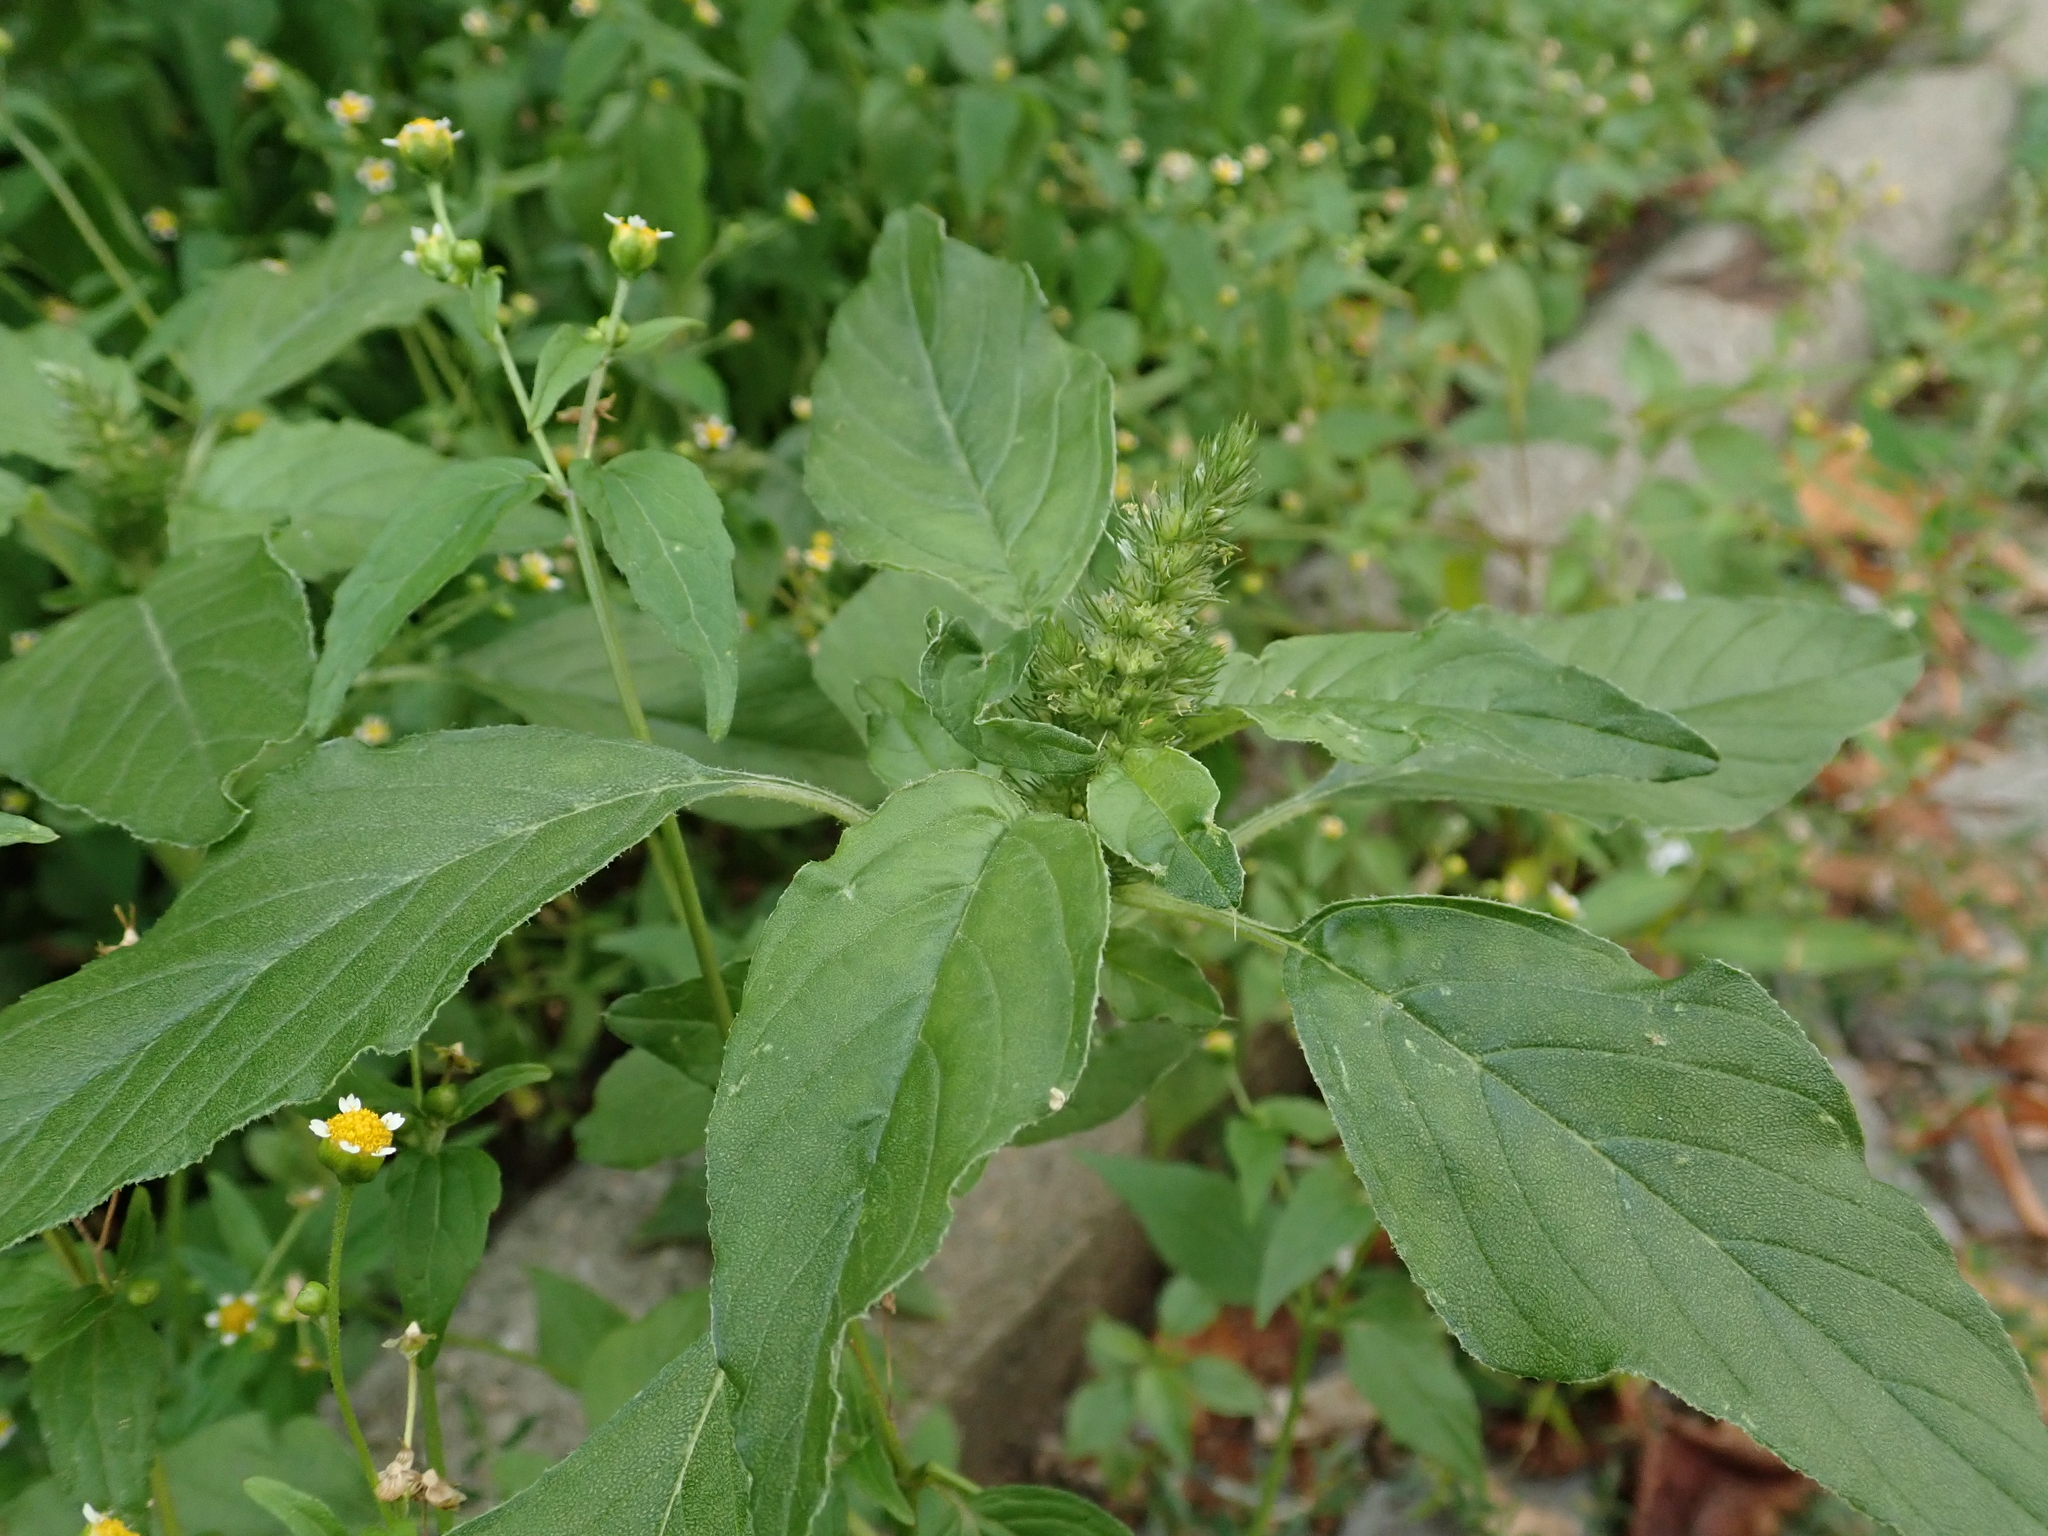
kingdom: Plantae
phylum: Tracheophyta
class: Magnoliopsida
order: Caryophyllales
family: Amaranthaceae
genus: Amaranthus
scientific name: Amaranthus retroflexus
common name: Redroot amaranth
